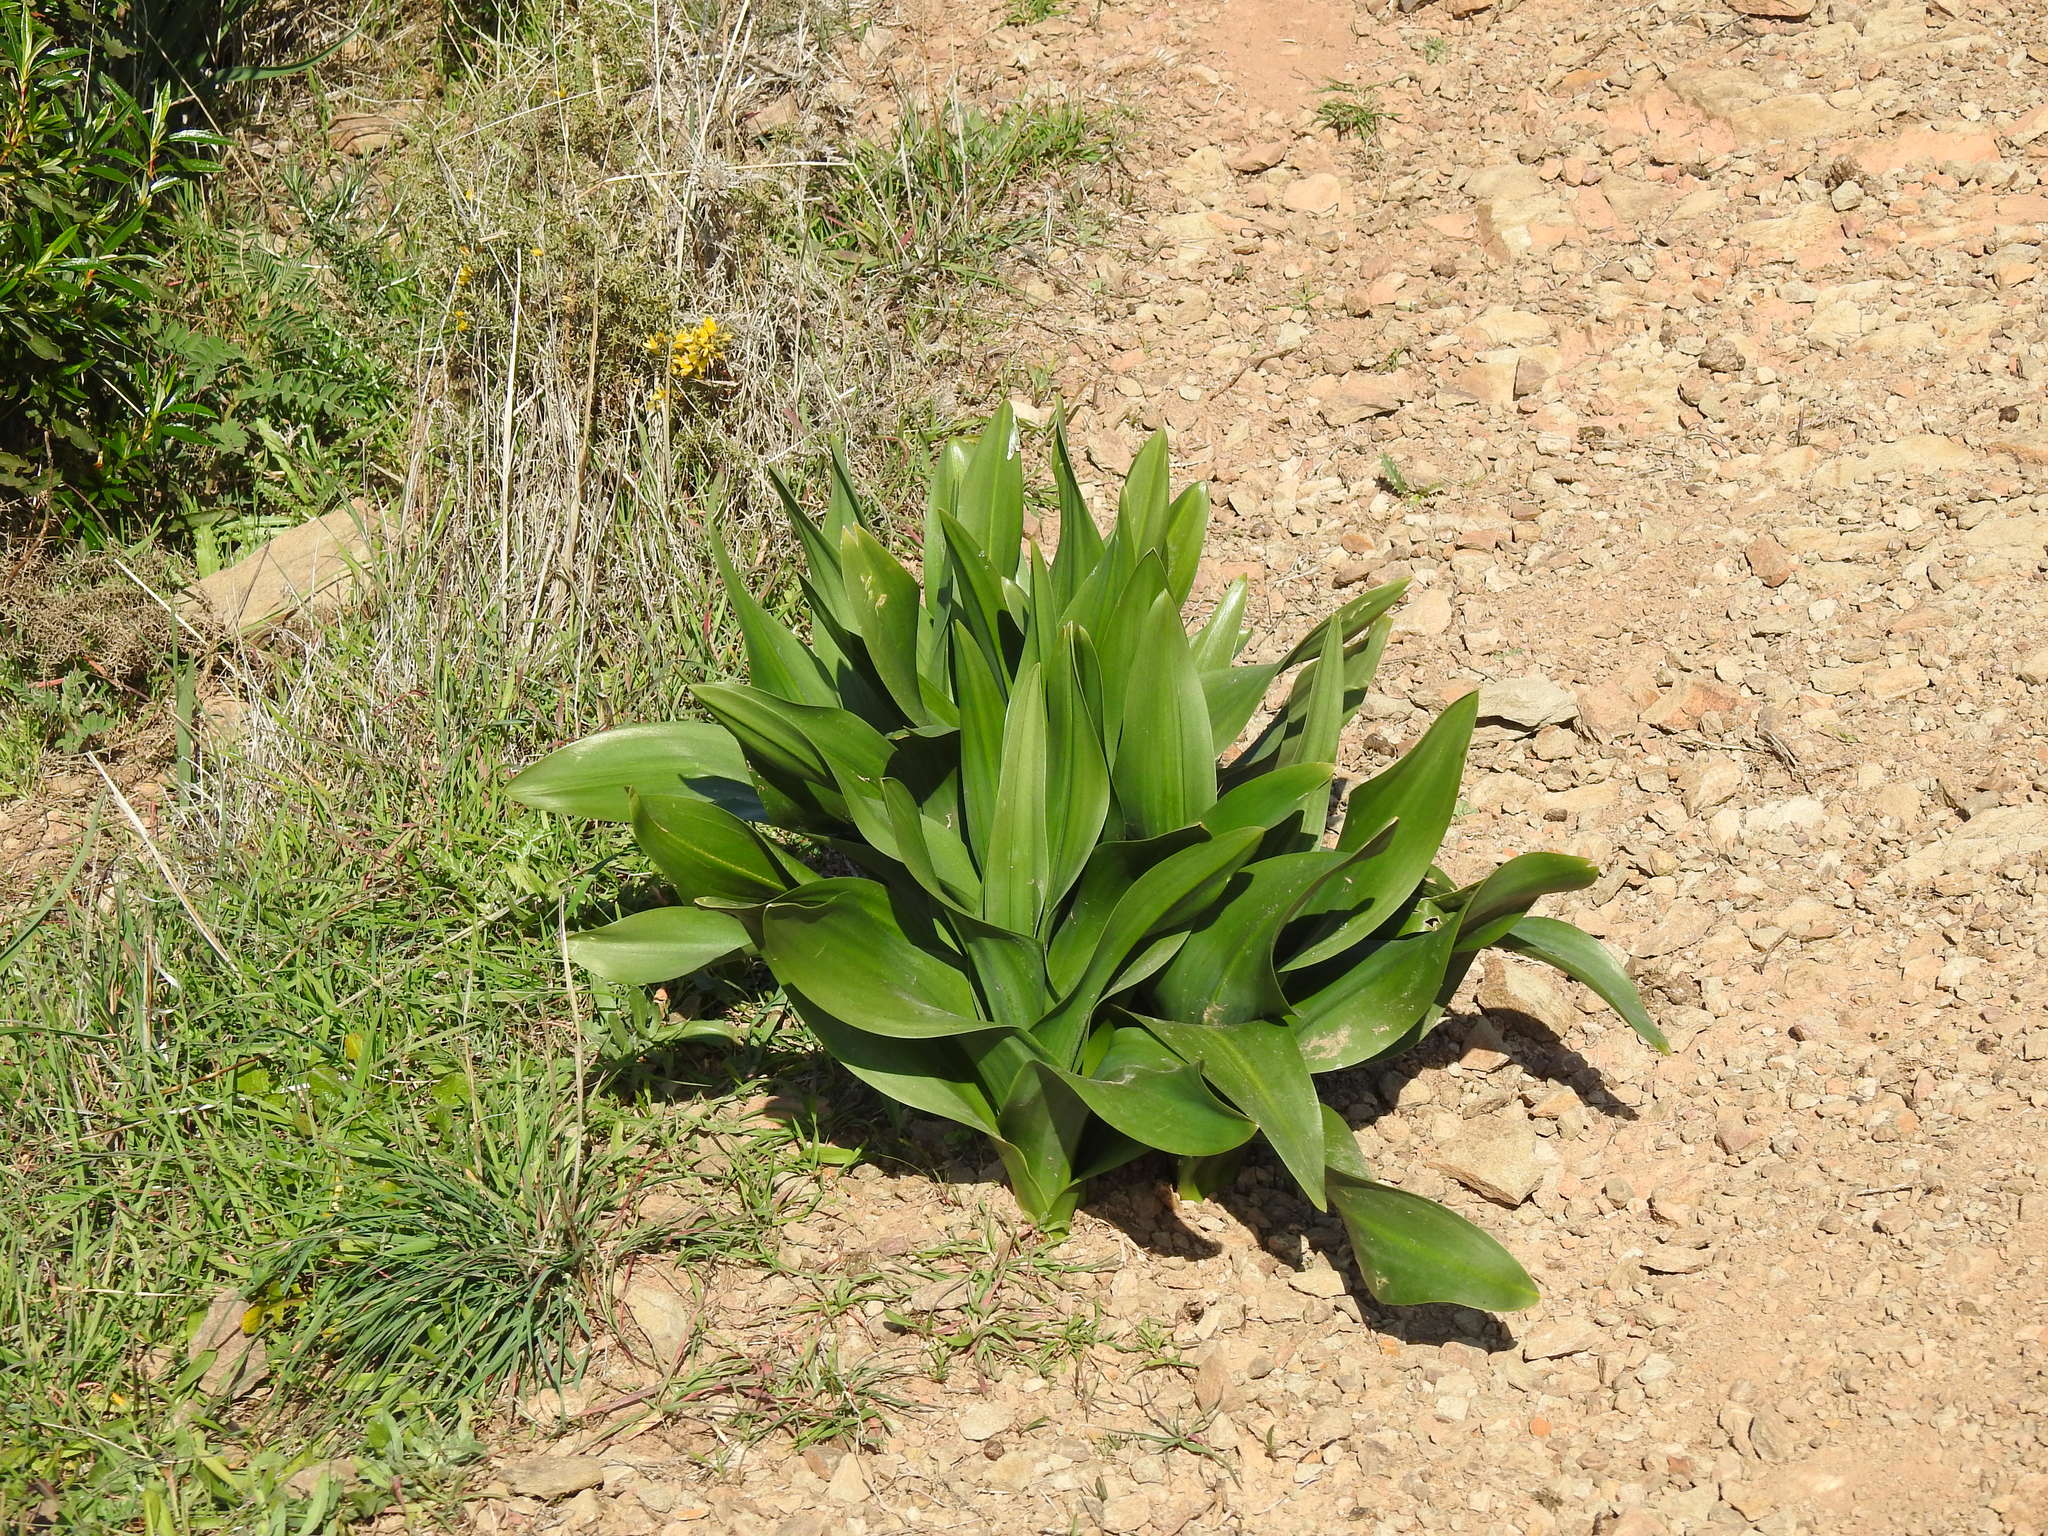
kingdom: Plantae
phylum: Tracheophyta
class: Liliopsida
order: Asparagales
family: Asparagaceae
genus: Drimia
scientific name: Drimia maritima
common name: Maritime squill
